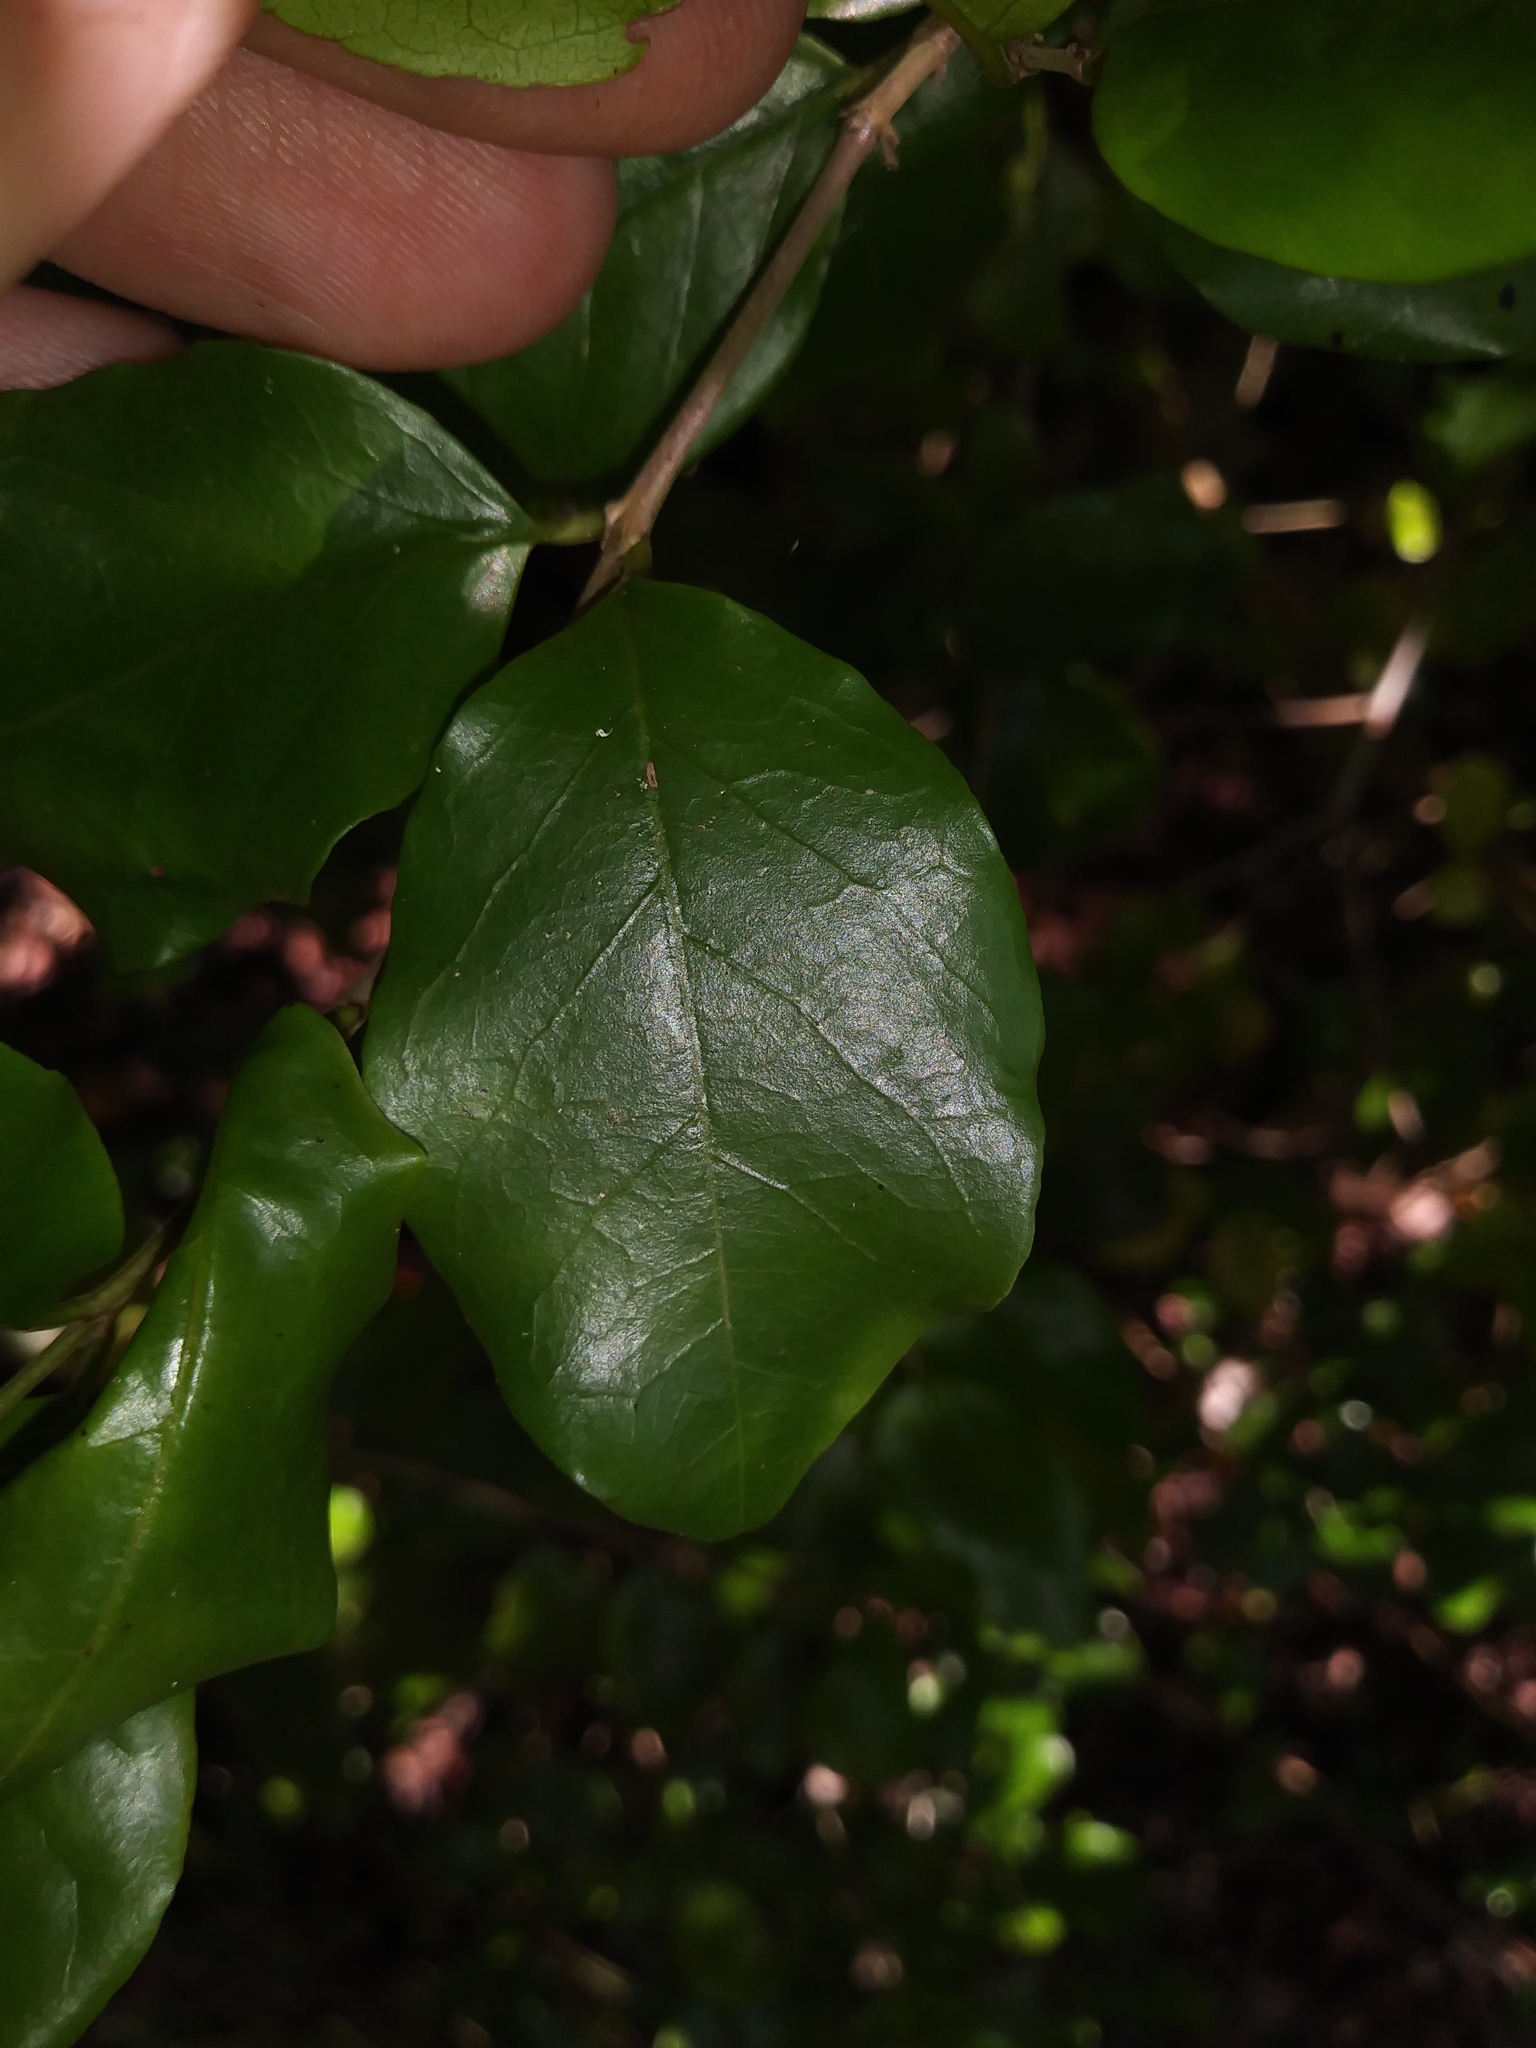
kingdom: Plantae
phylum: Tracheophyta
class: Magnoliopsida
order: Rosales
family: Rhamnaceae
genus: Krugiodendron
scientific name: Krugiodendron ferreum
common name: Iron wood
